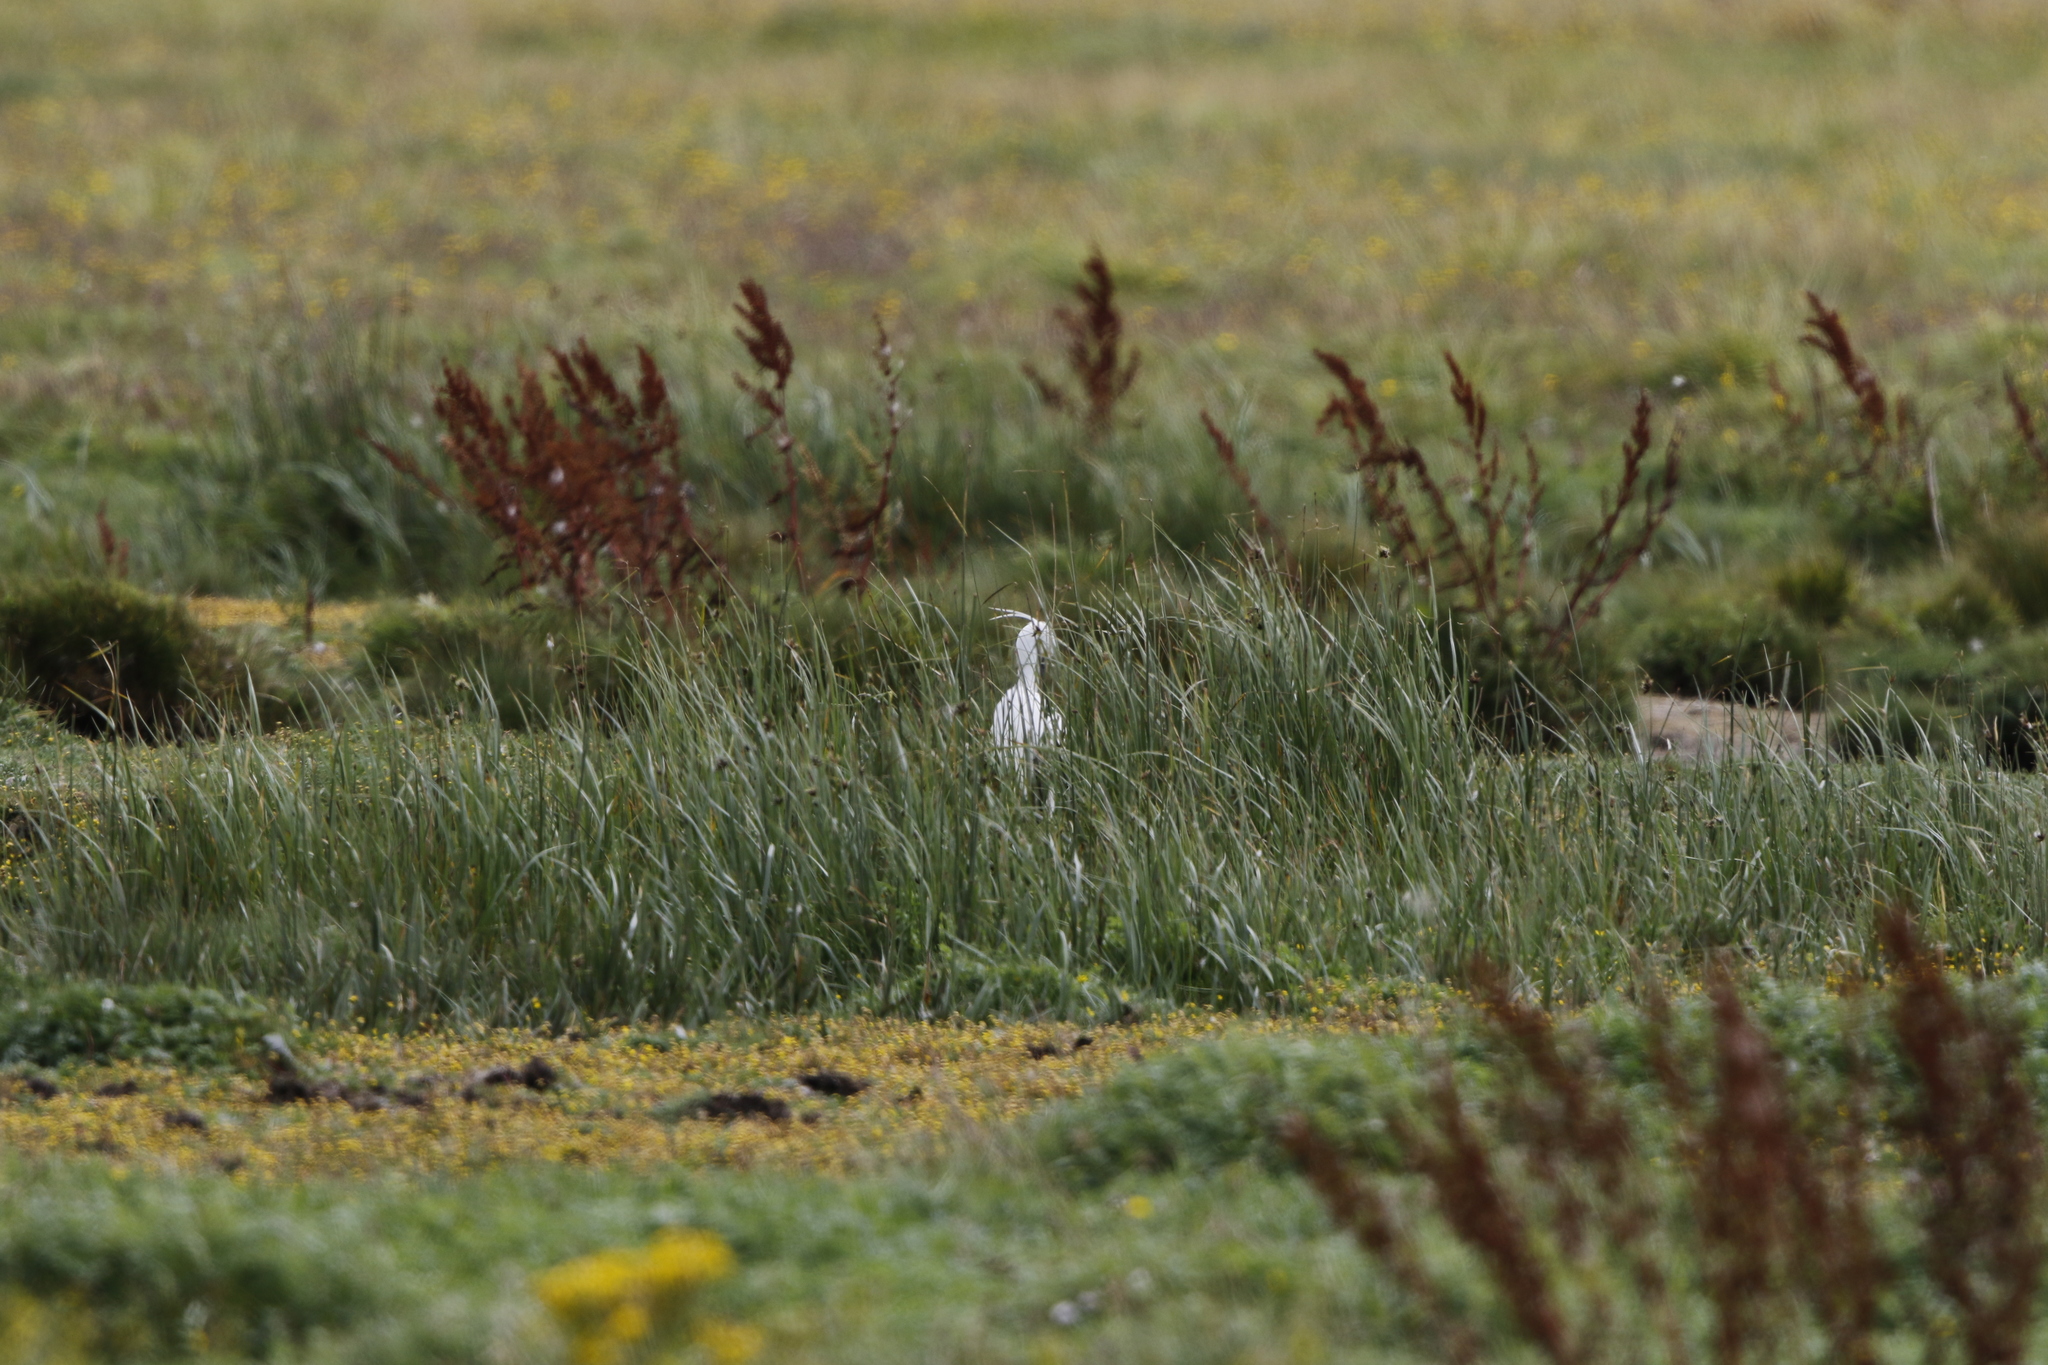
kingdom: Animalia
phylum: Chordata
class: Aves
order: Pelecaniformes
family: Ardeidae
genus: Egretta
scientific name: Egretta garzetta
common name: Little egret
